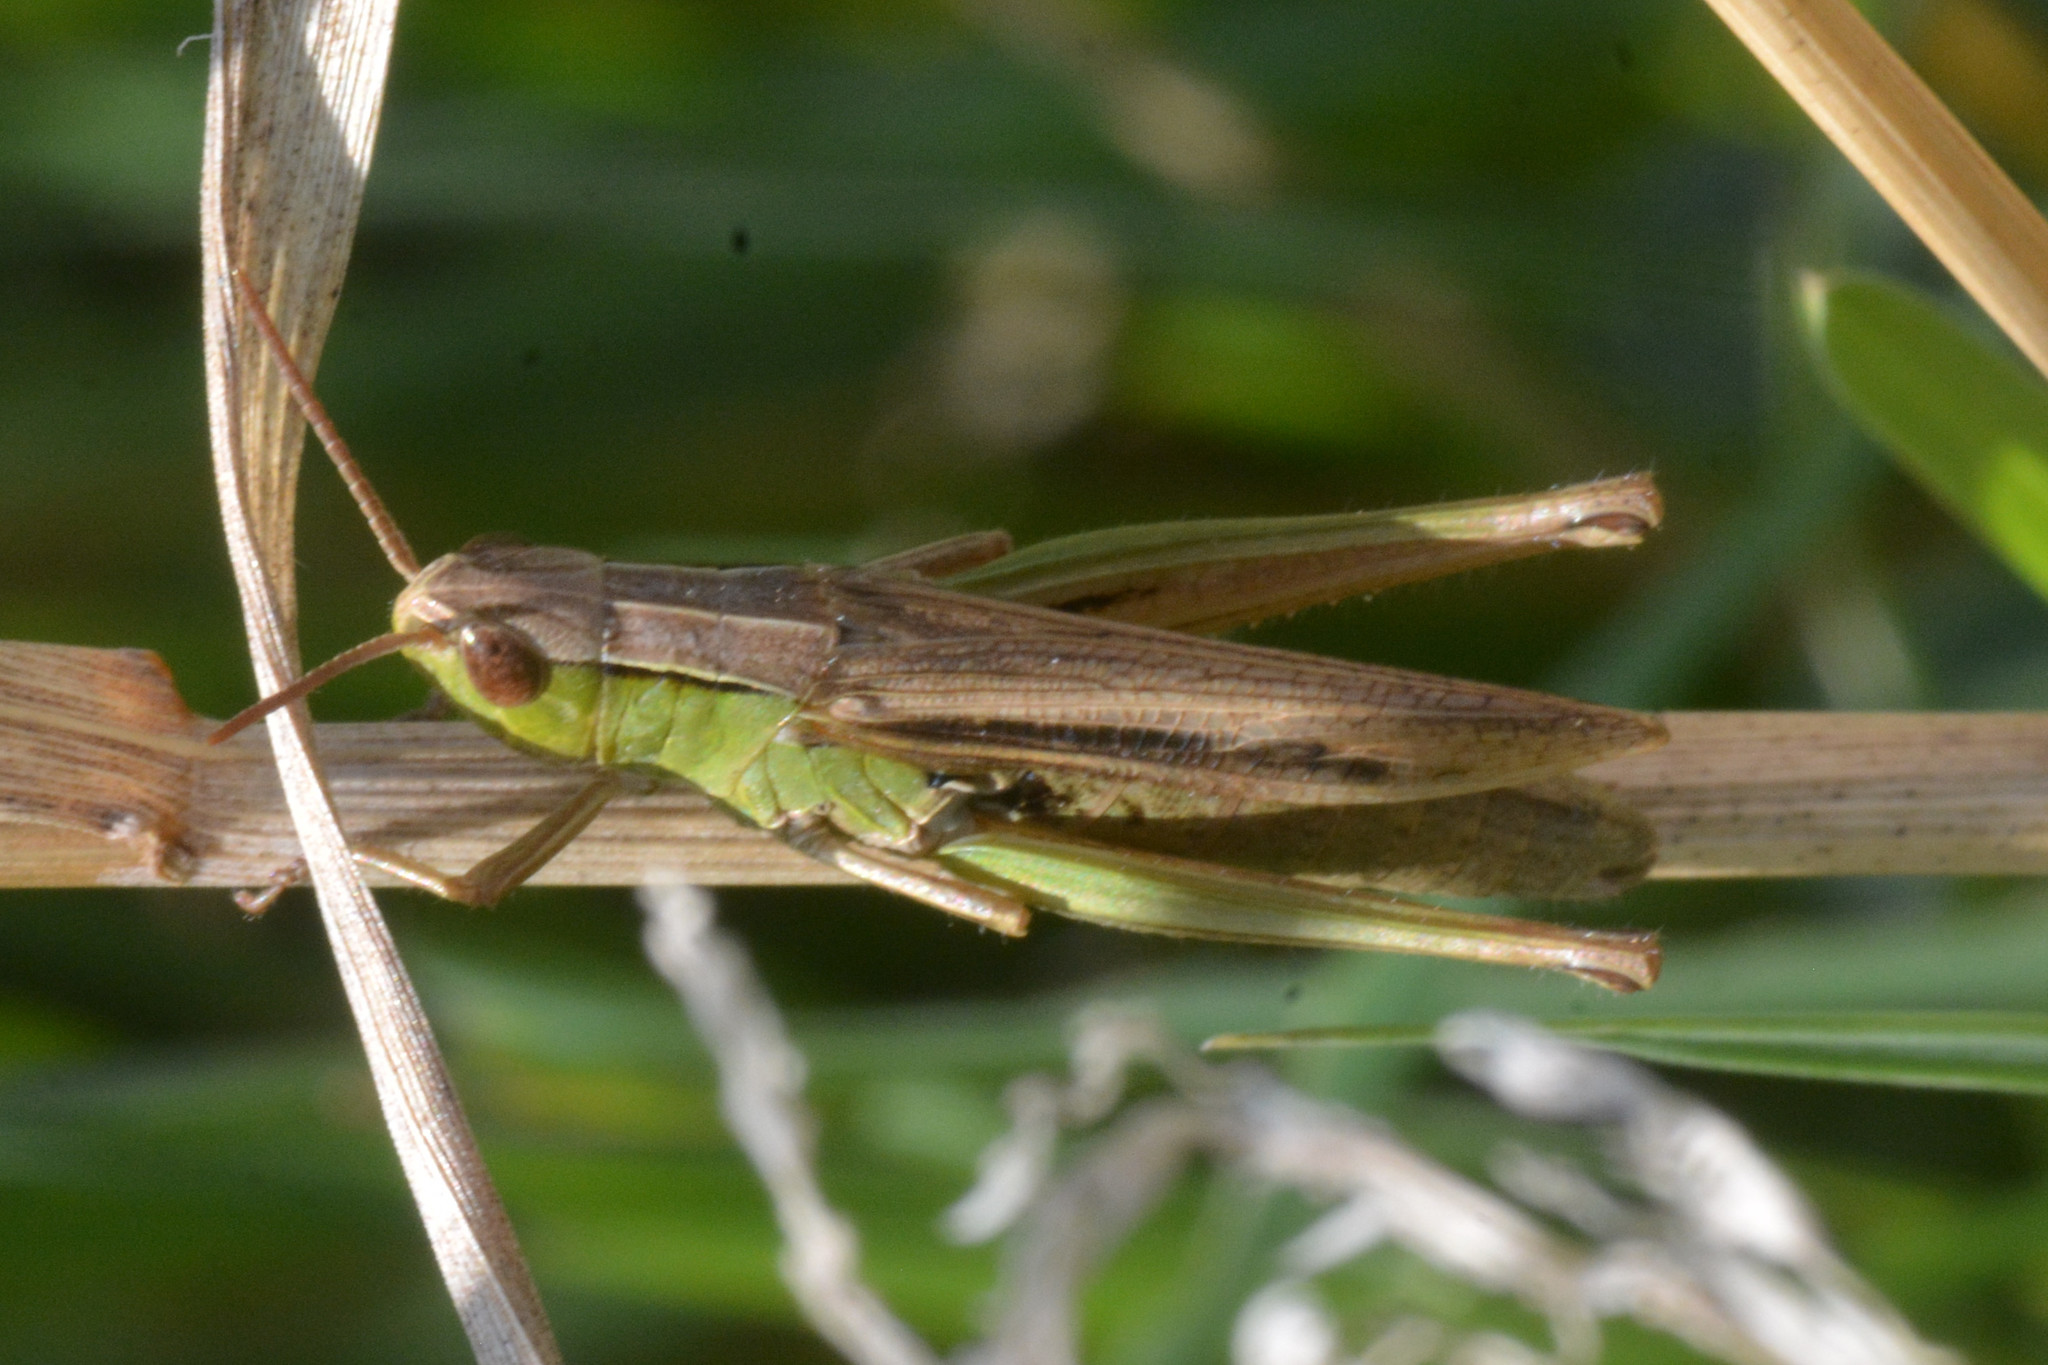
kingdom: Animalia
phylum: Arthropoda
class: Insecta
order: Orthoptera
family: Acrididae
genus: Chorthippus
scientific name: Chorthippus albomarginatus
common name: Lesser marsh grasshopper
